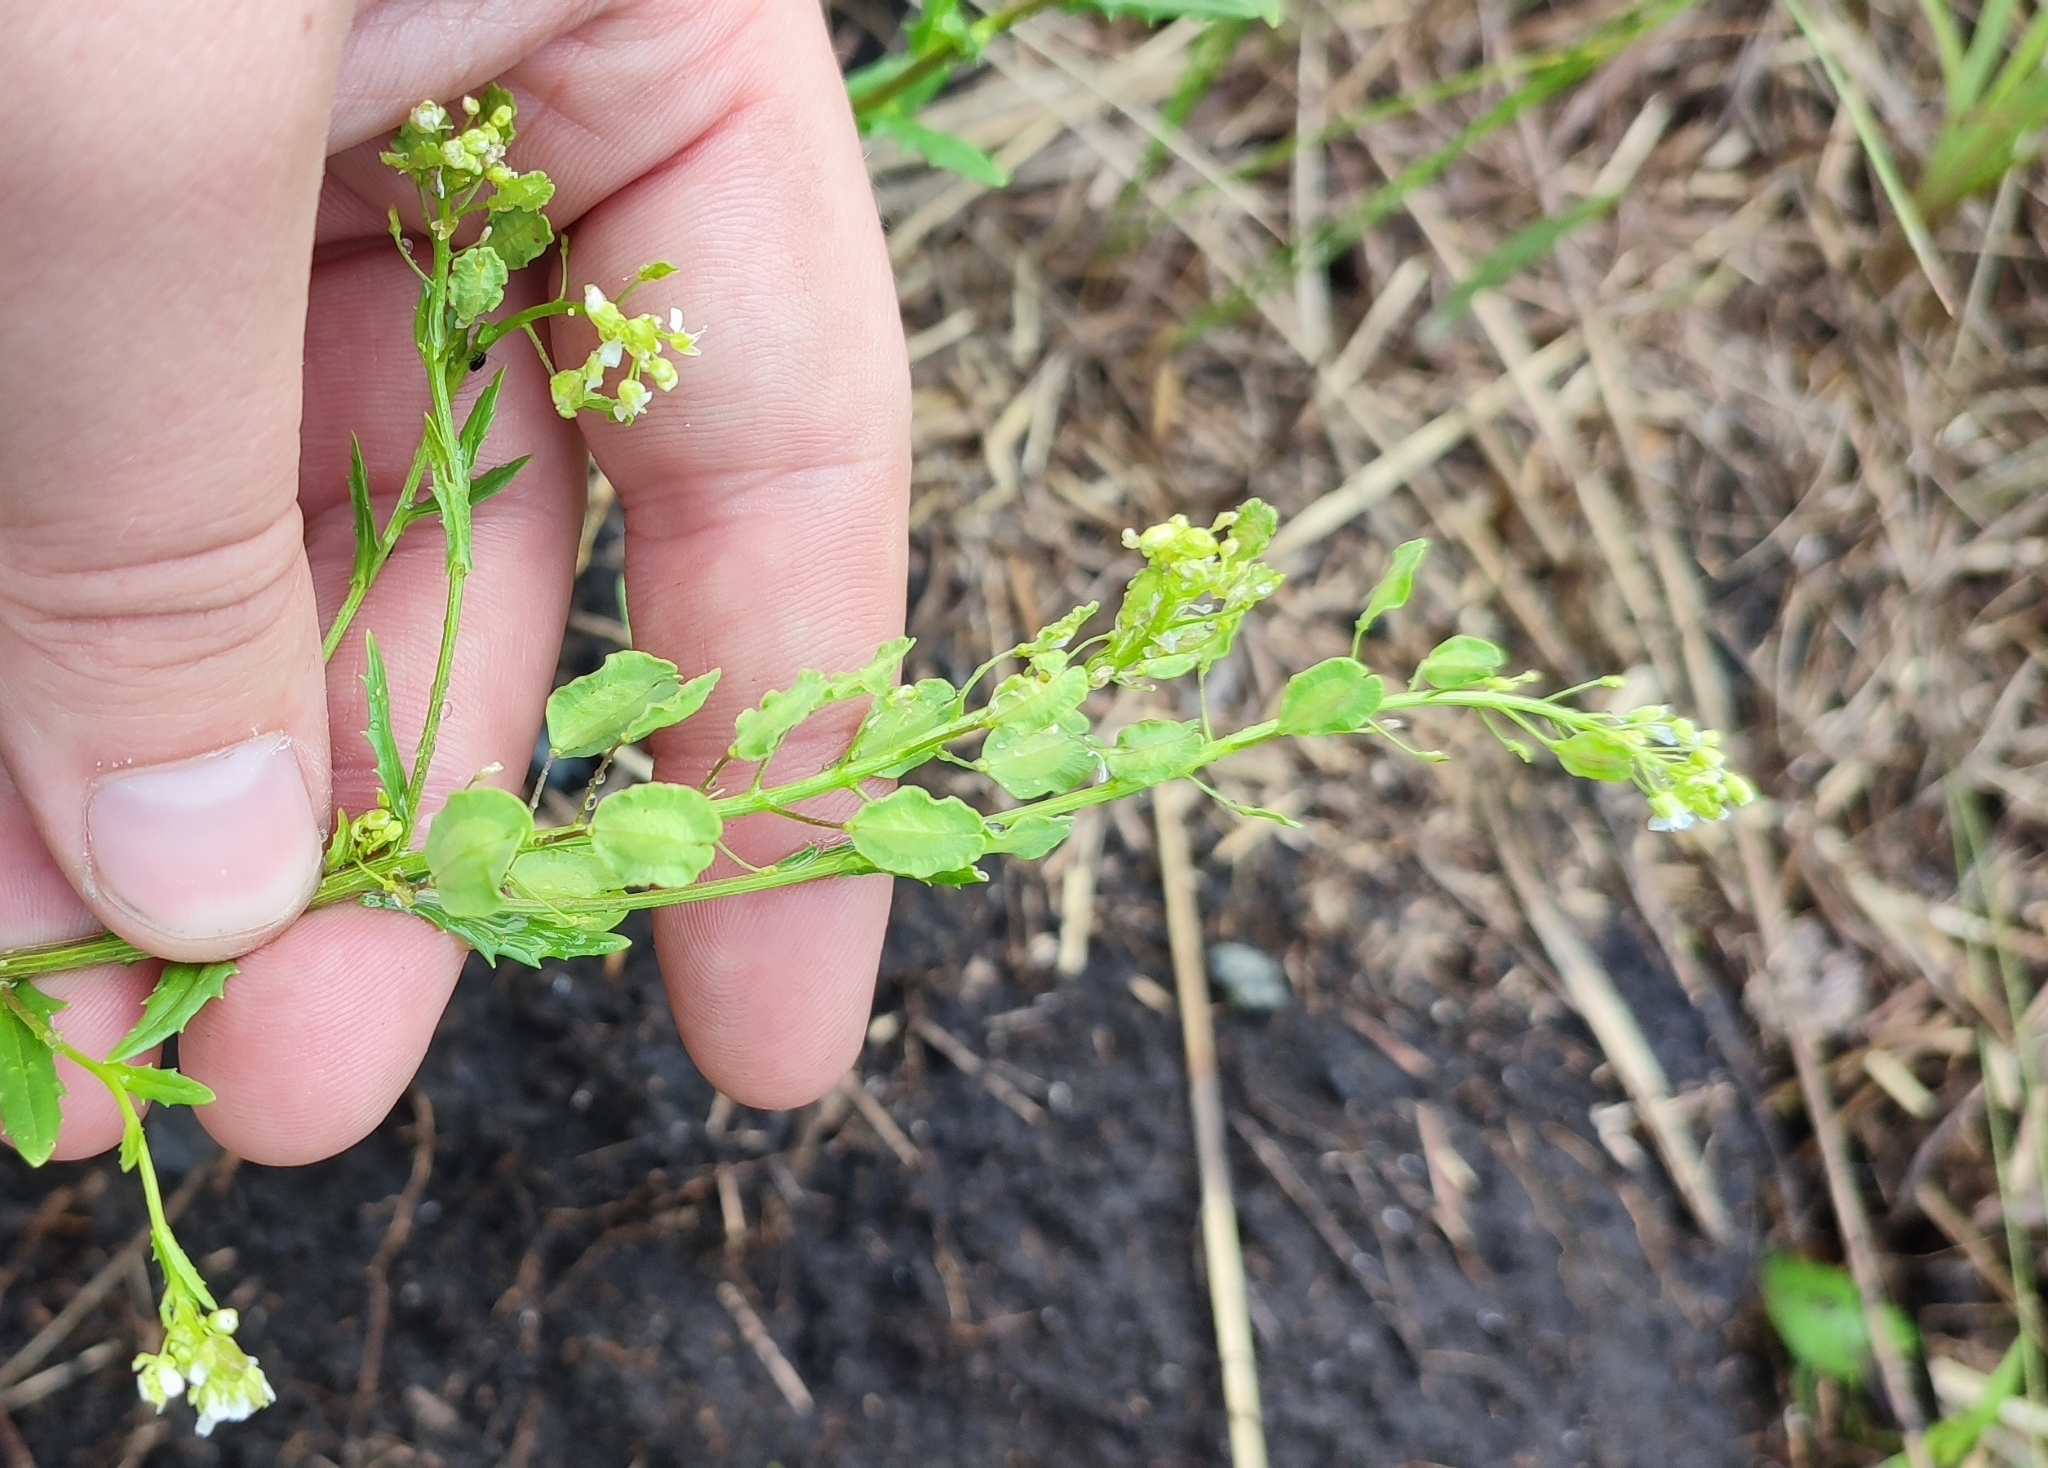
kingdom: Plantae
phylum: Tracheophyta
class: Magnoliopsida
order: Brassicales
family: Brassicaceae
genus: Thlaspi
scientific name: Thlaspi arvense
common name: Field pennycress
